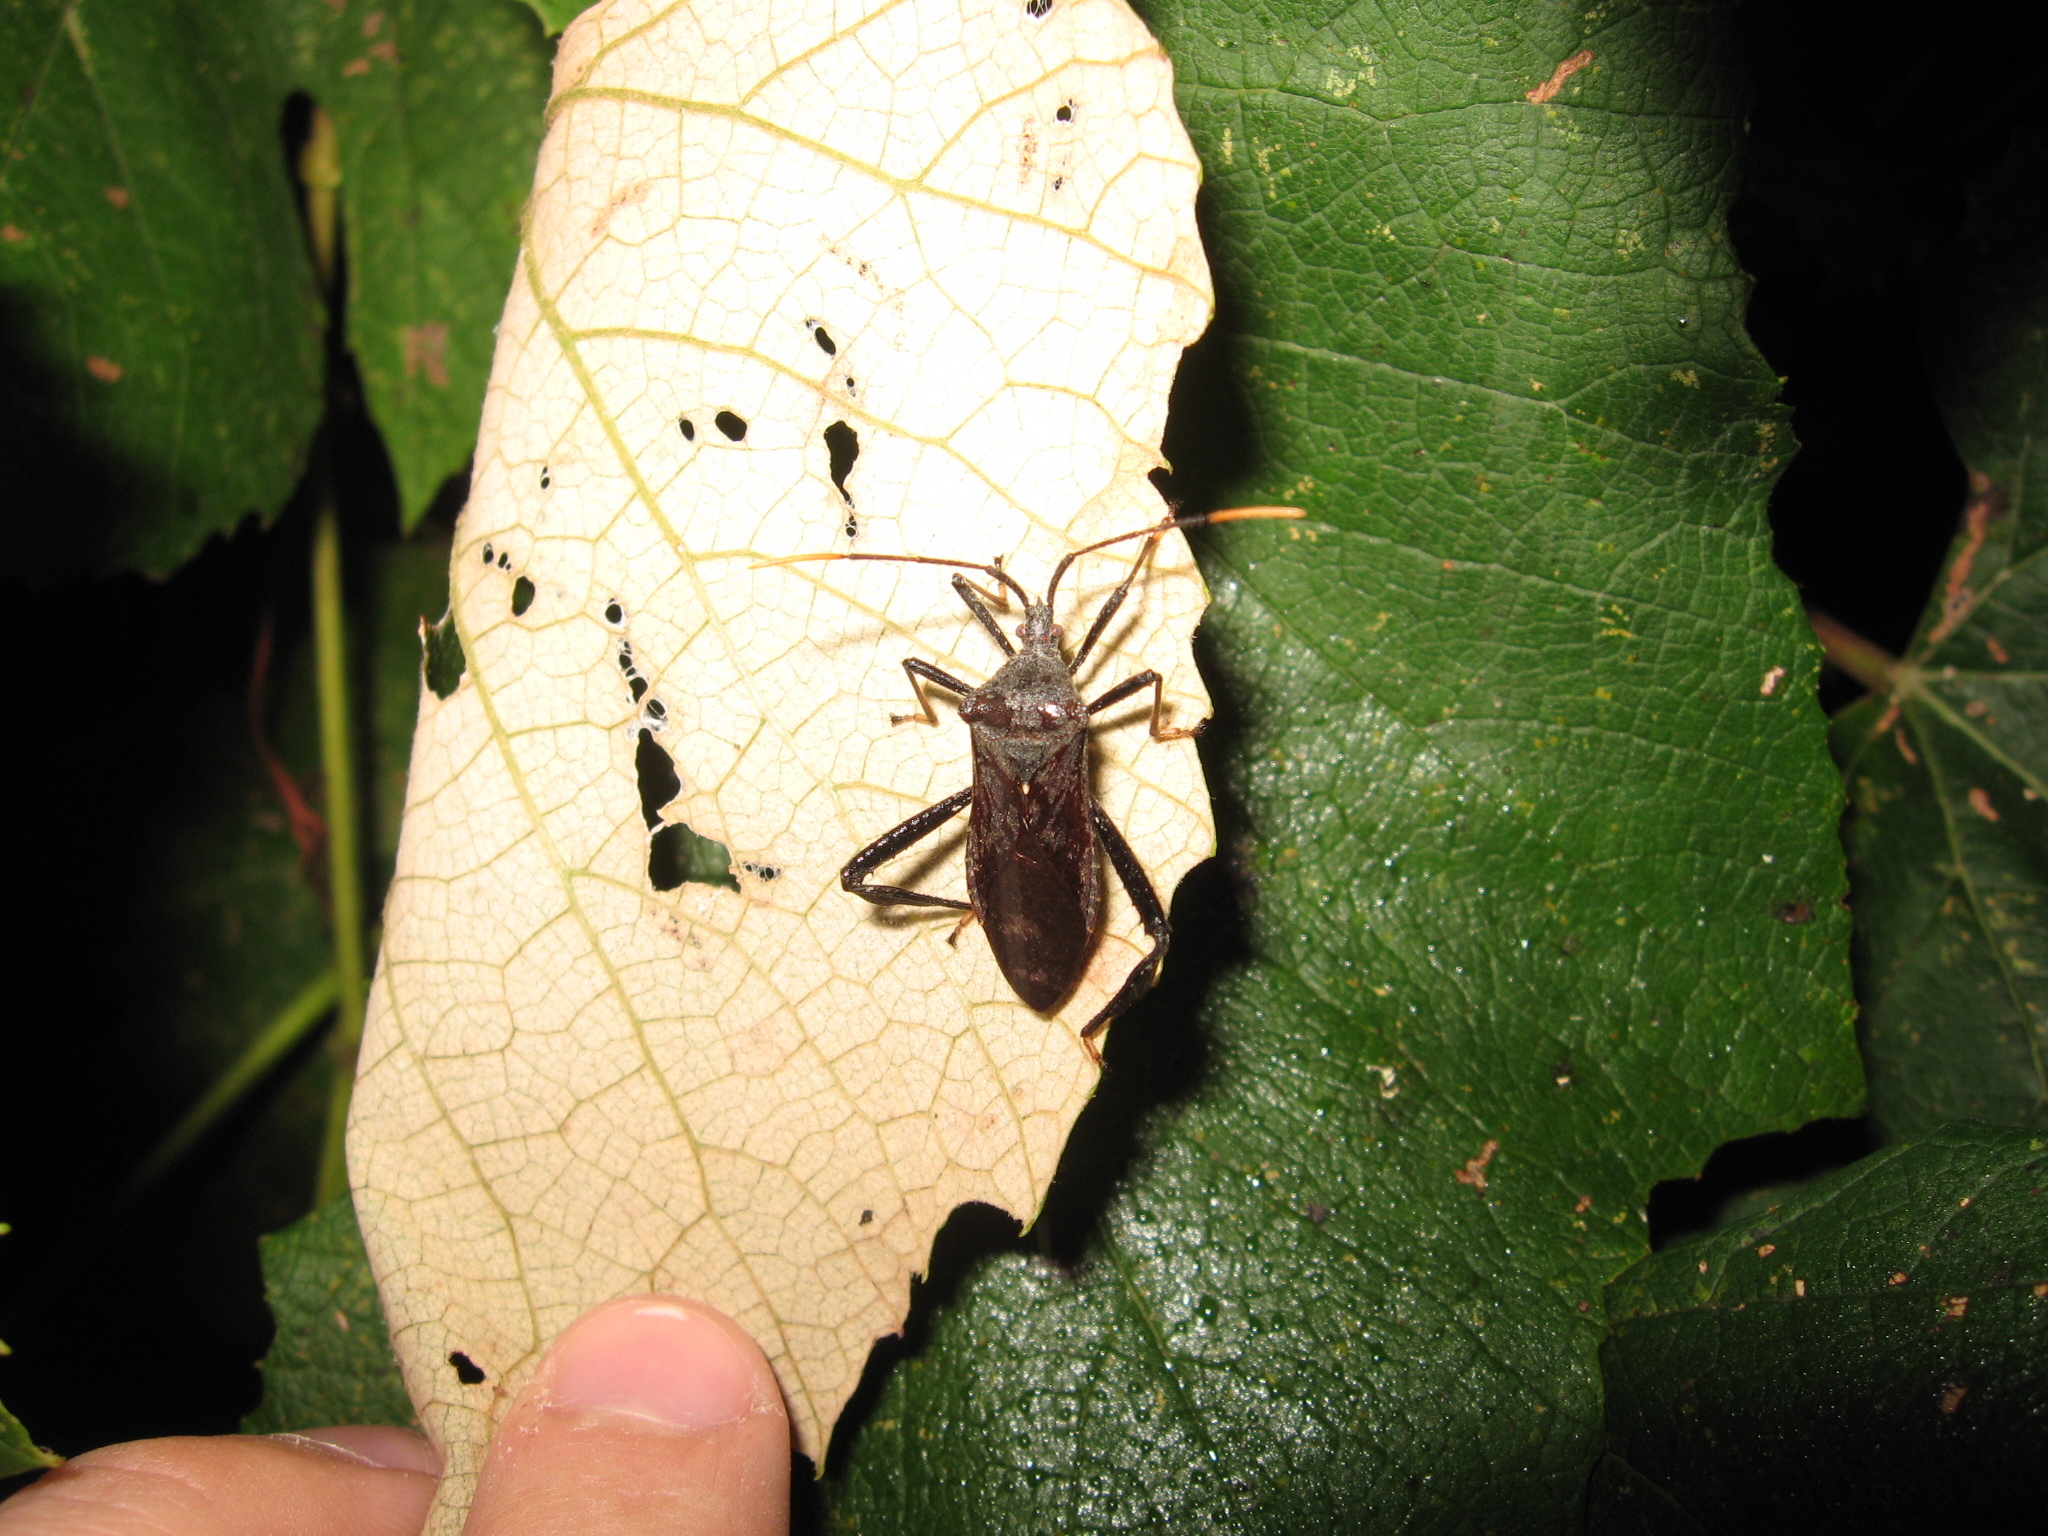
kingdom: Animalia
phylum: Arthropoda
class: Insecta
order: Hemiptera
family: Coreidae
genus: Acanthocephala
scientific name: Acanthocephala terminalis
